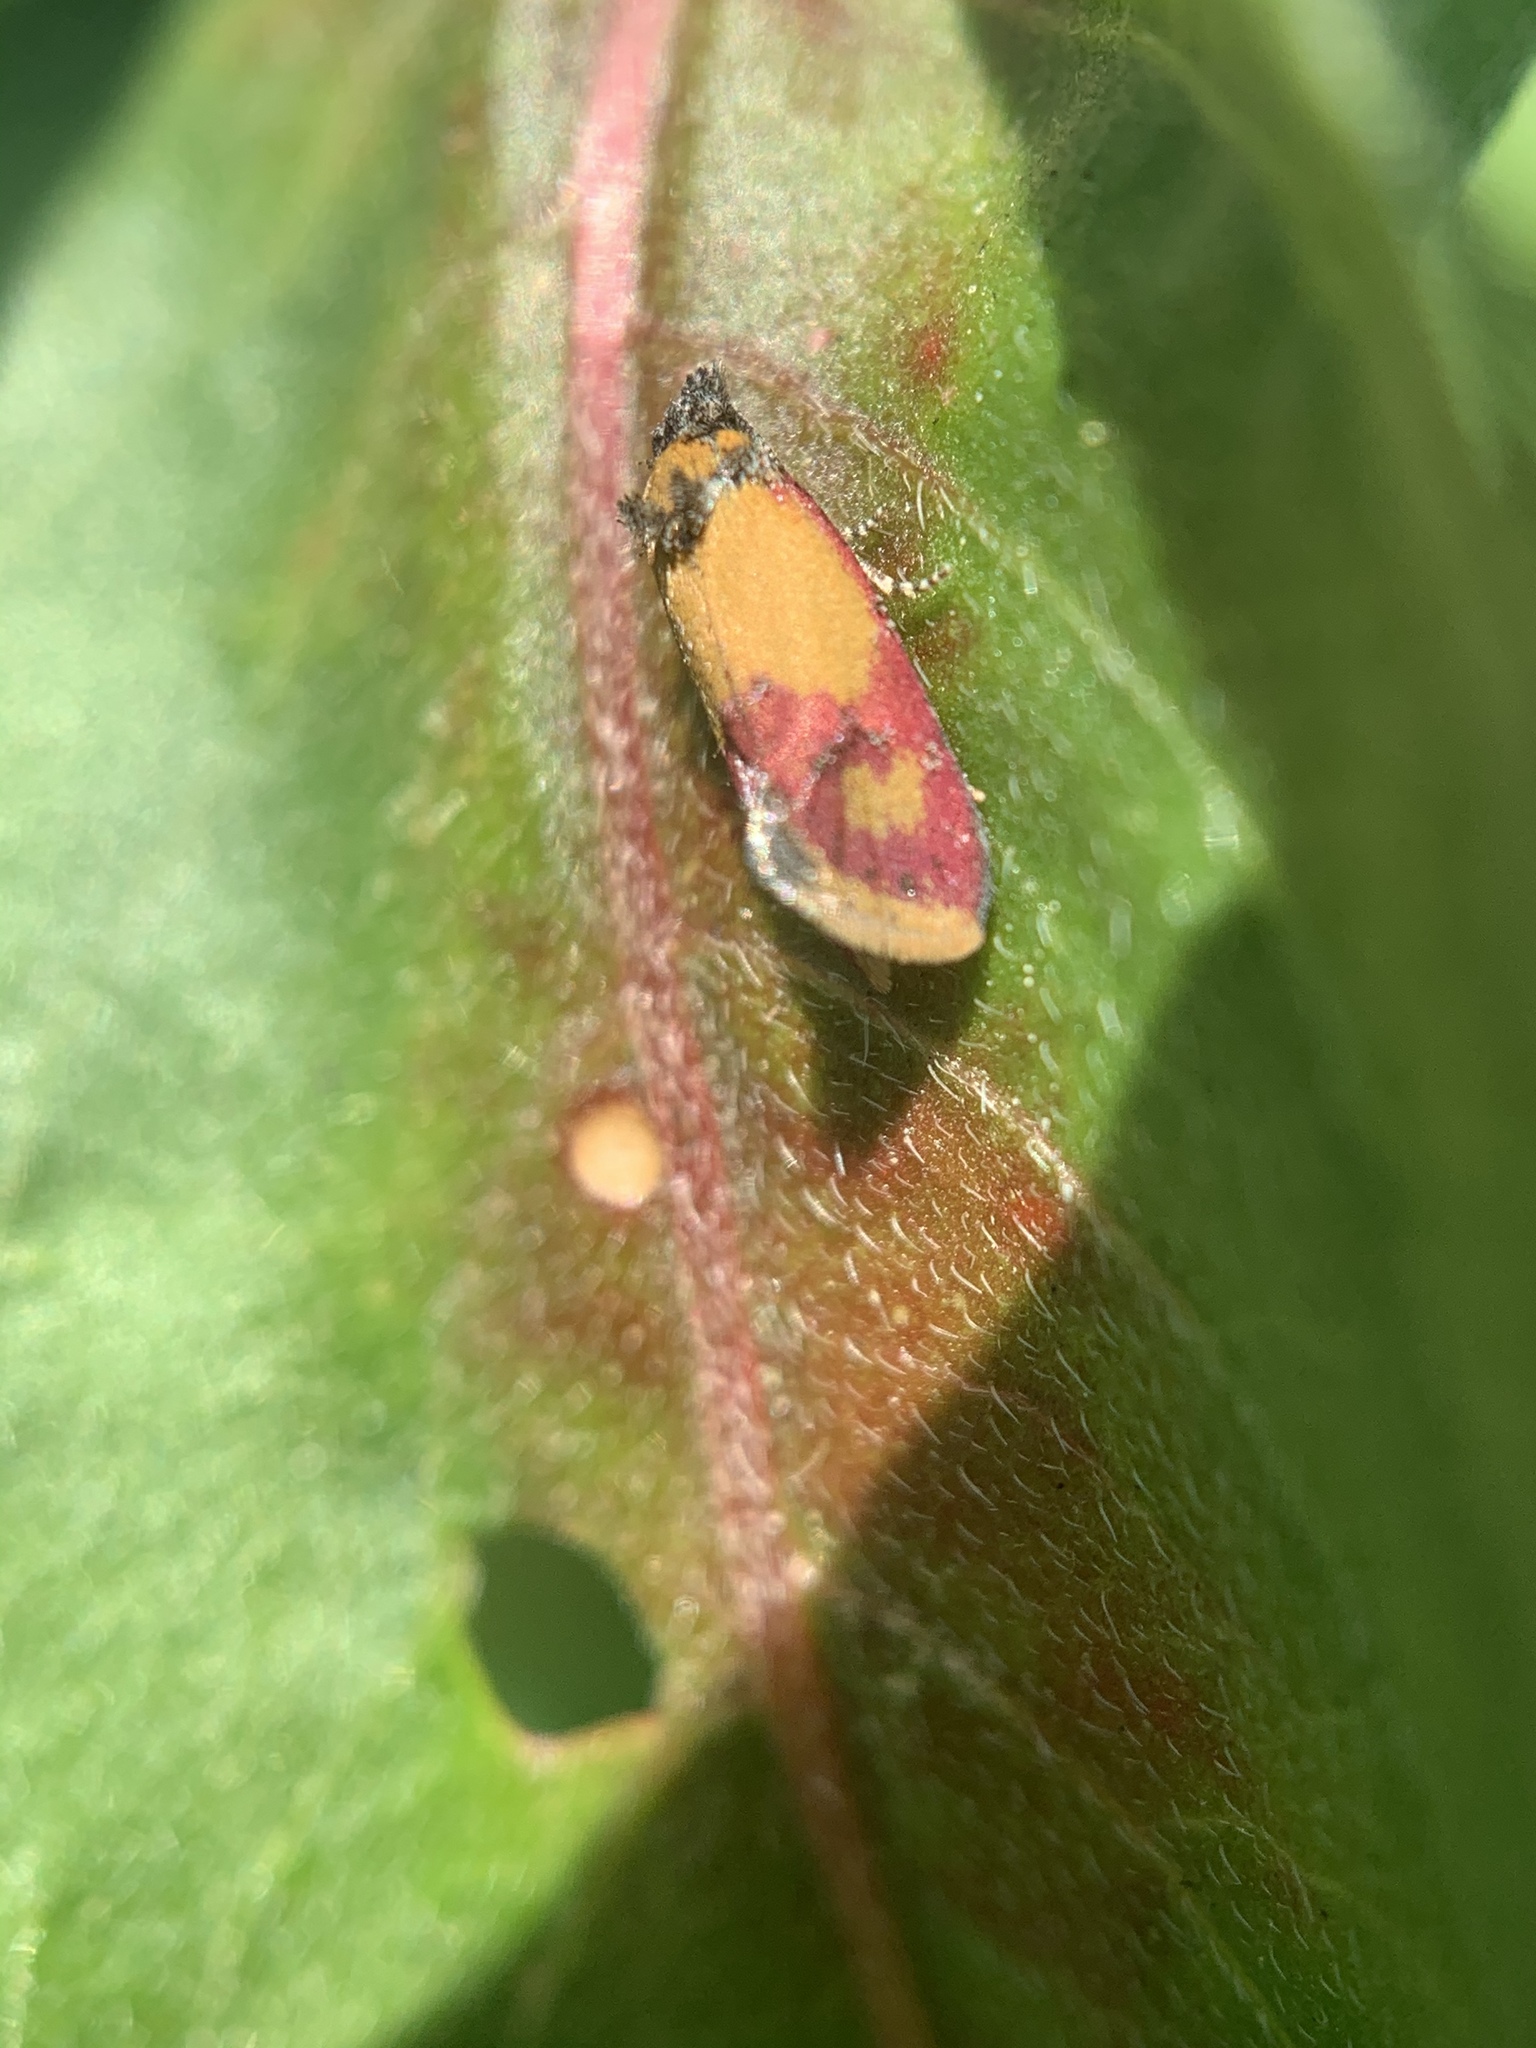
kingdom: Animalia
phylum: Arthropoda
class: Insecta
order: Lepidoptera
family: Tortricidae
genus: Conchylis
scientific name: Conchylis oenotherana
